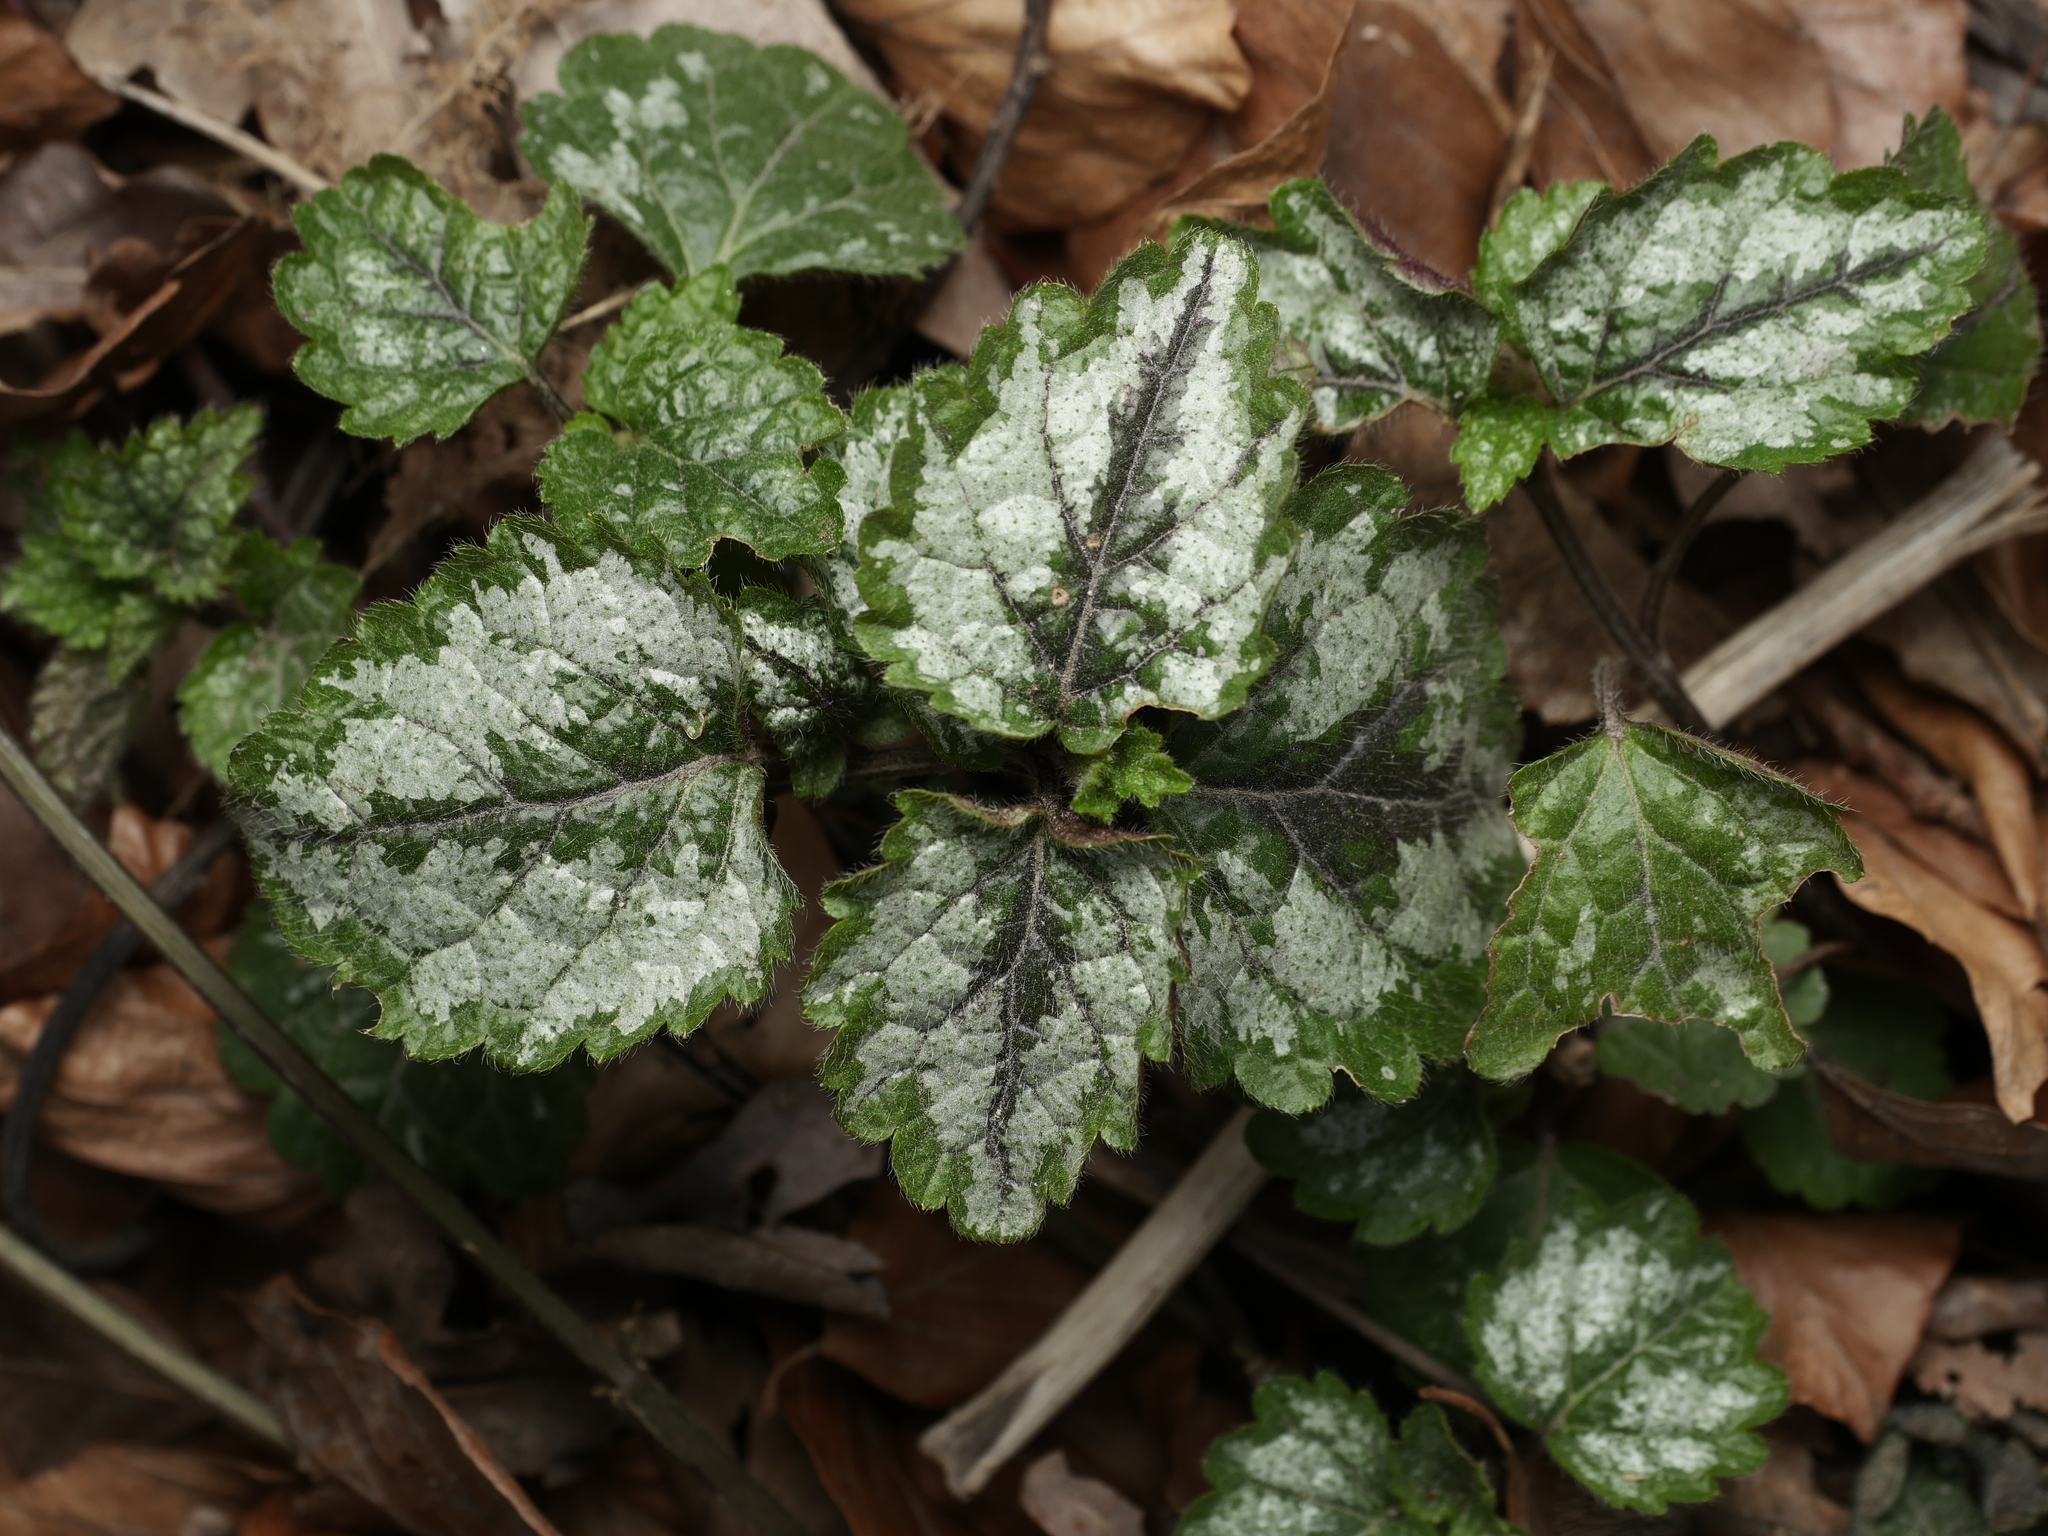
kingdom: Plantae
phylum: Tracheophyta
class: Magnoliopsida
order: Lamiales
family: Lamiaceae
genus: Lamium
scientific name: Lamium galeobdolon
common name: Yellow archangel
